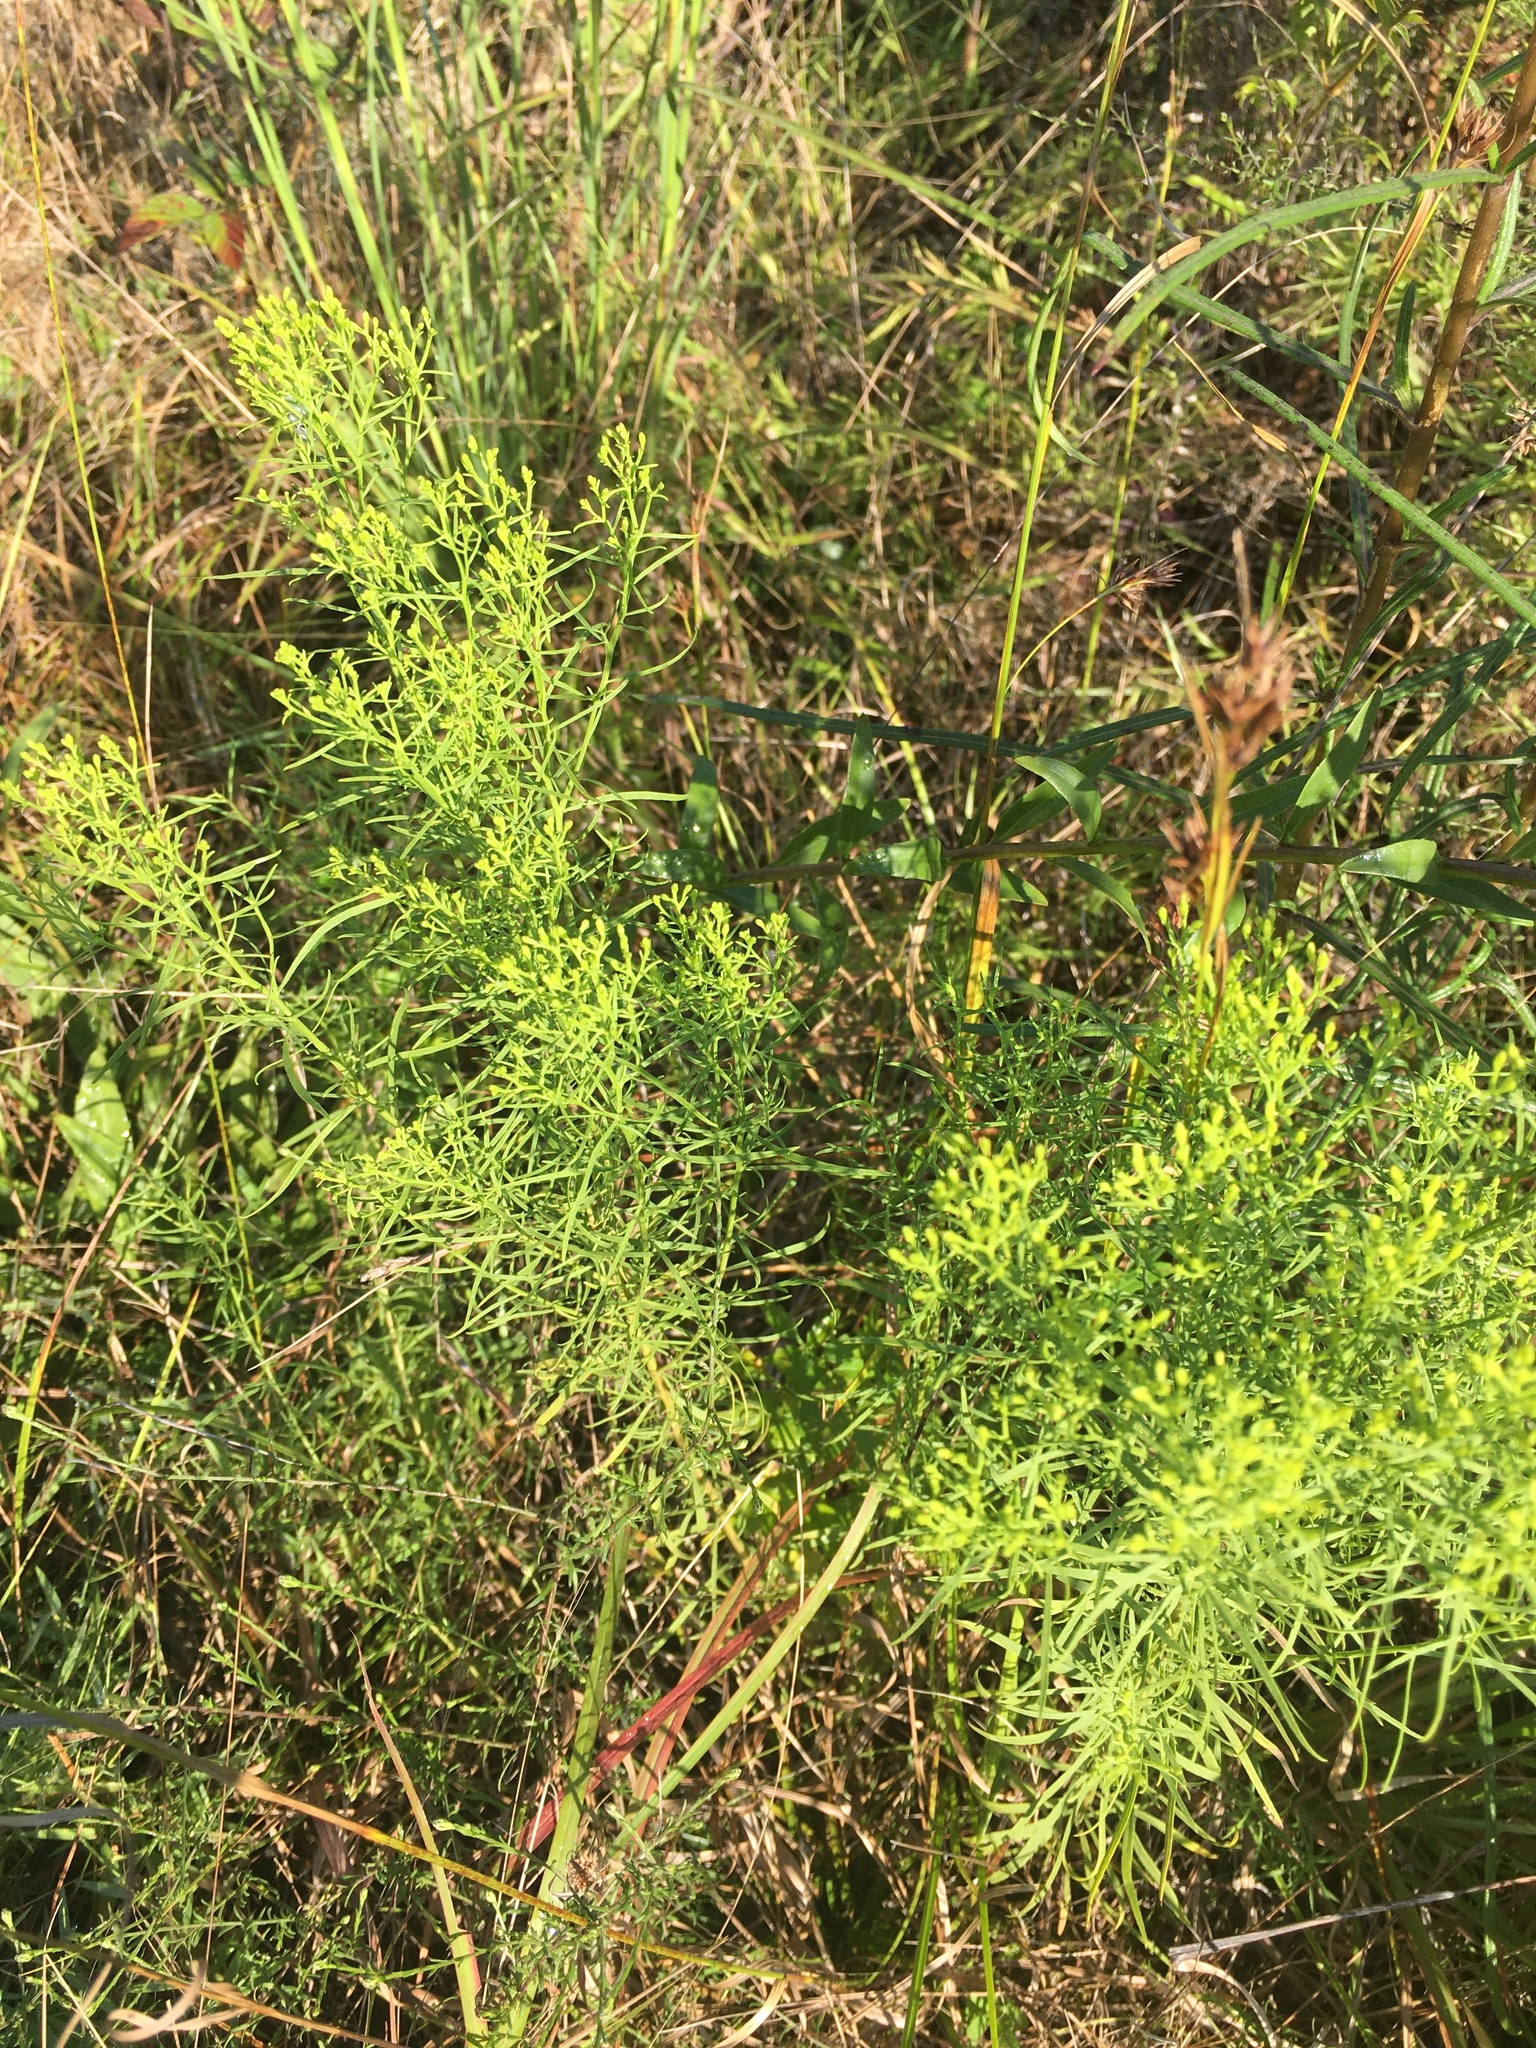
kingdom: Plantae
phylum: Tracheophyta
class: Magnoliopsida
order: Asterales
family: Asteraceae
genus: Euthamia
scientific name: Euthamia caroliniana
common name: Coastal plain goldentop
